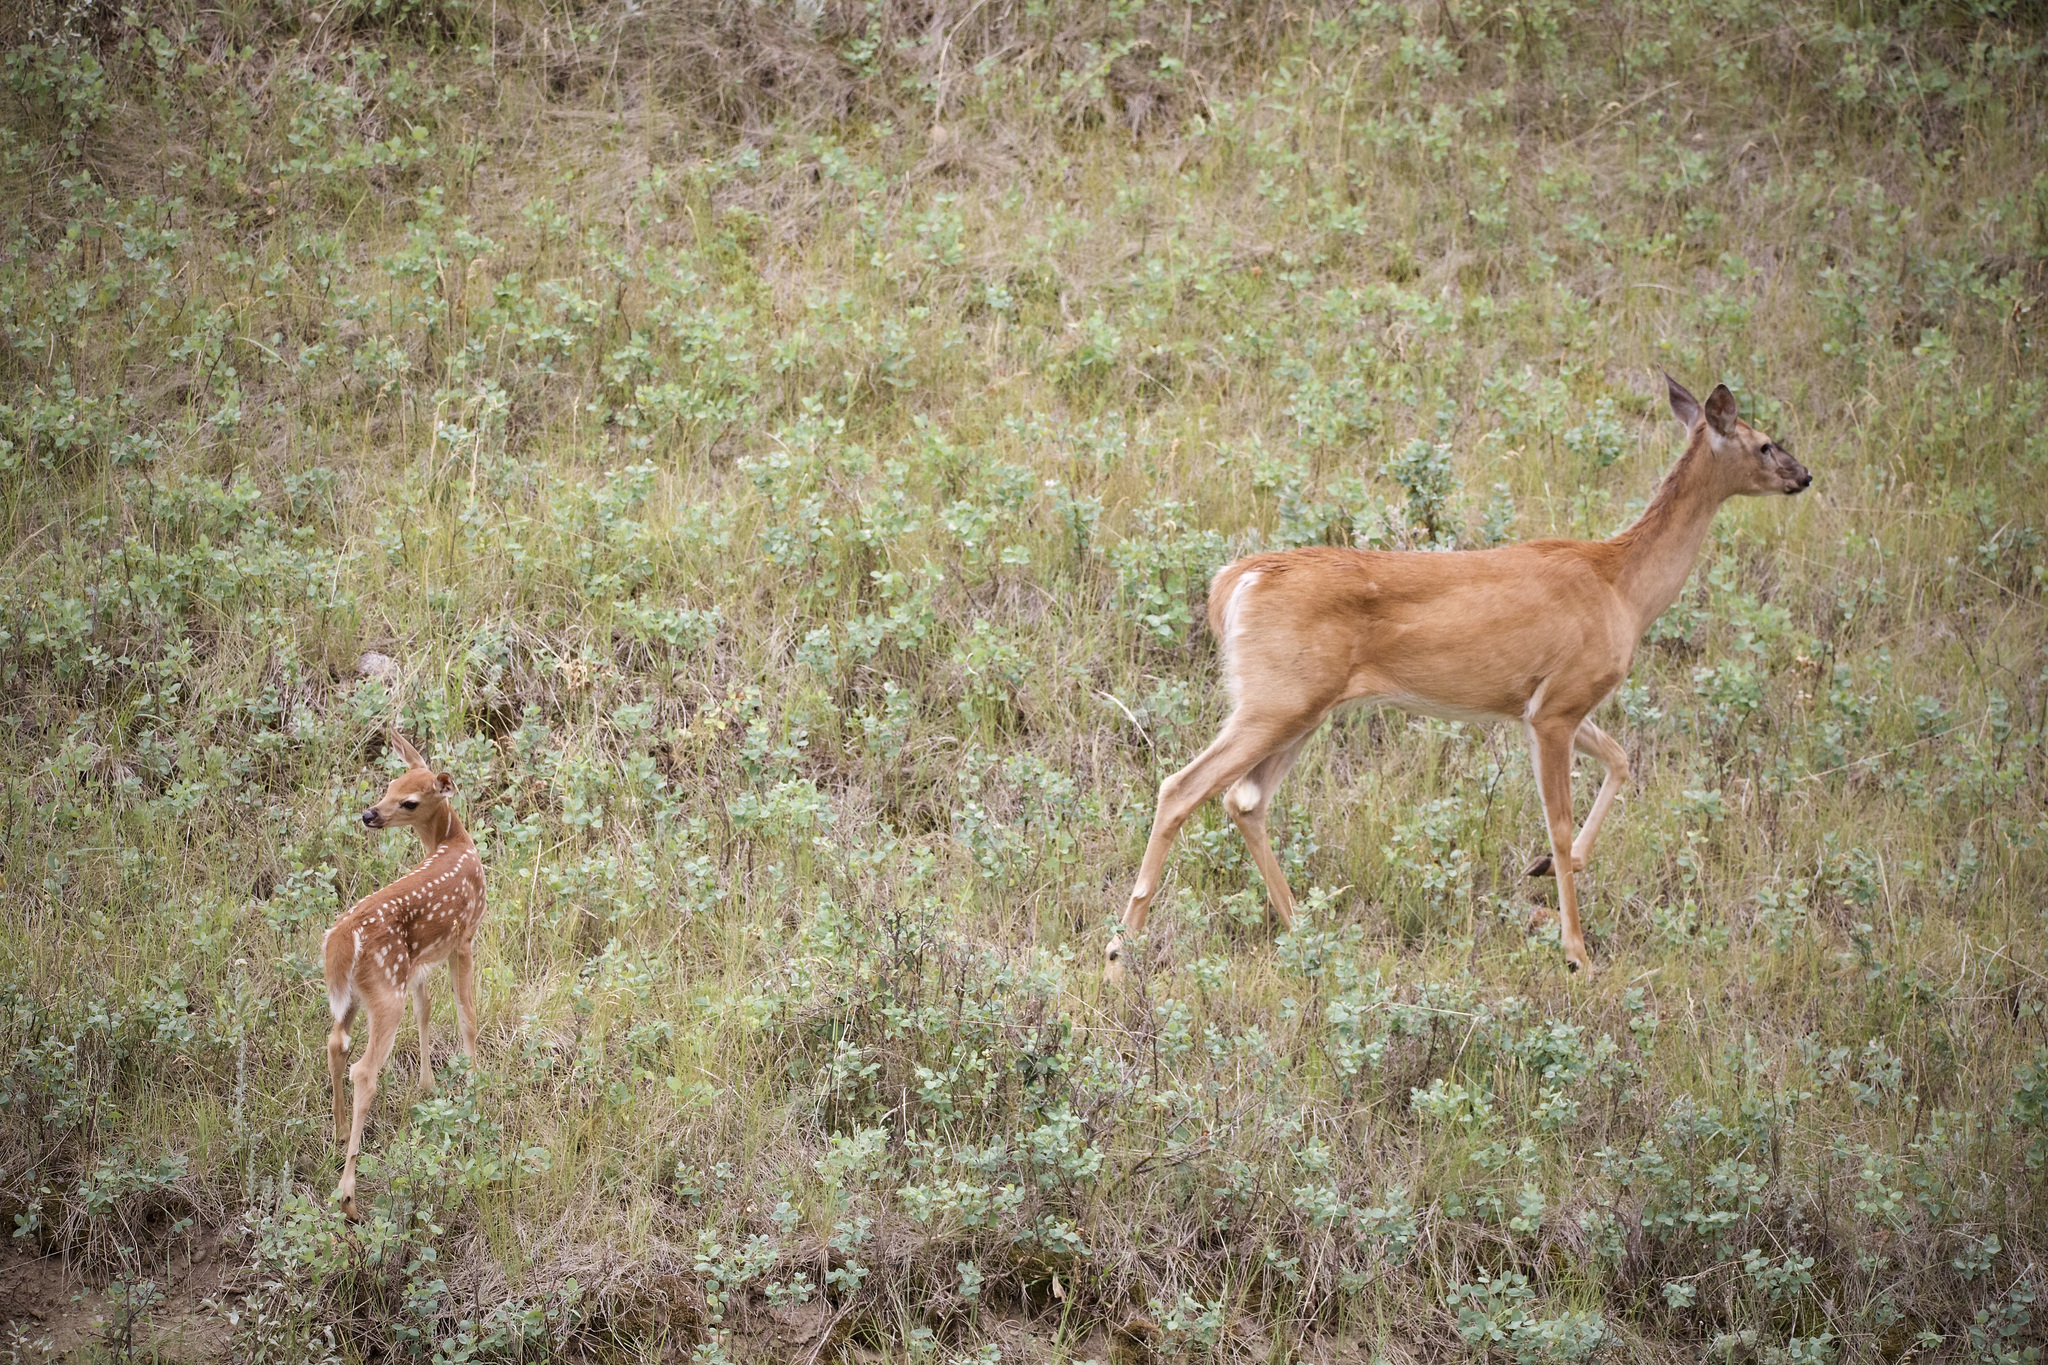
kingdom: Animalia
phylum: Chordata
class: Mammalia
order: Artiodactyla
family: Cervidae
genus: Odocoileus
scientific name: Odocoileus virginianus
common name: White-tailed deer
